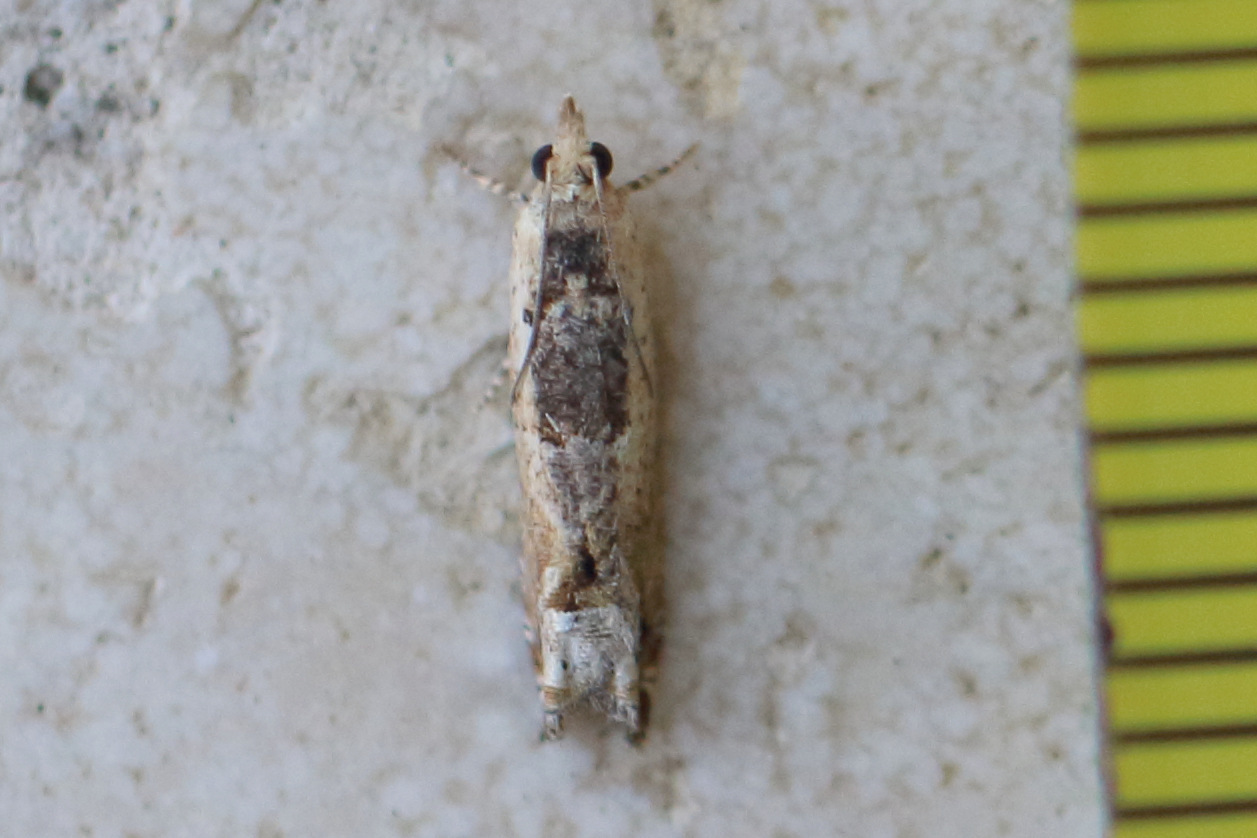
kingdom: Animalia
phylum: Arthropoda
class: Insecta
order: Lepidoptera
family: Tortricidae
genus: Crocidosema
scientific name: Crocidosema plebejana
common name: Southern bell
